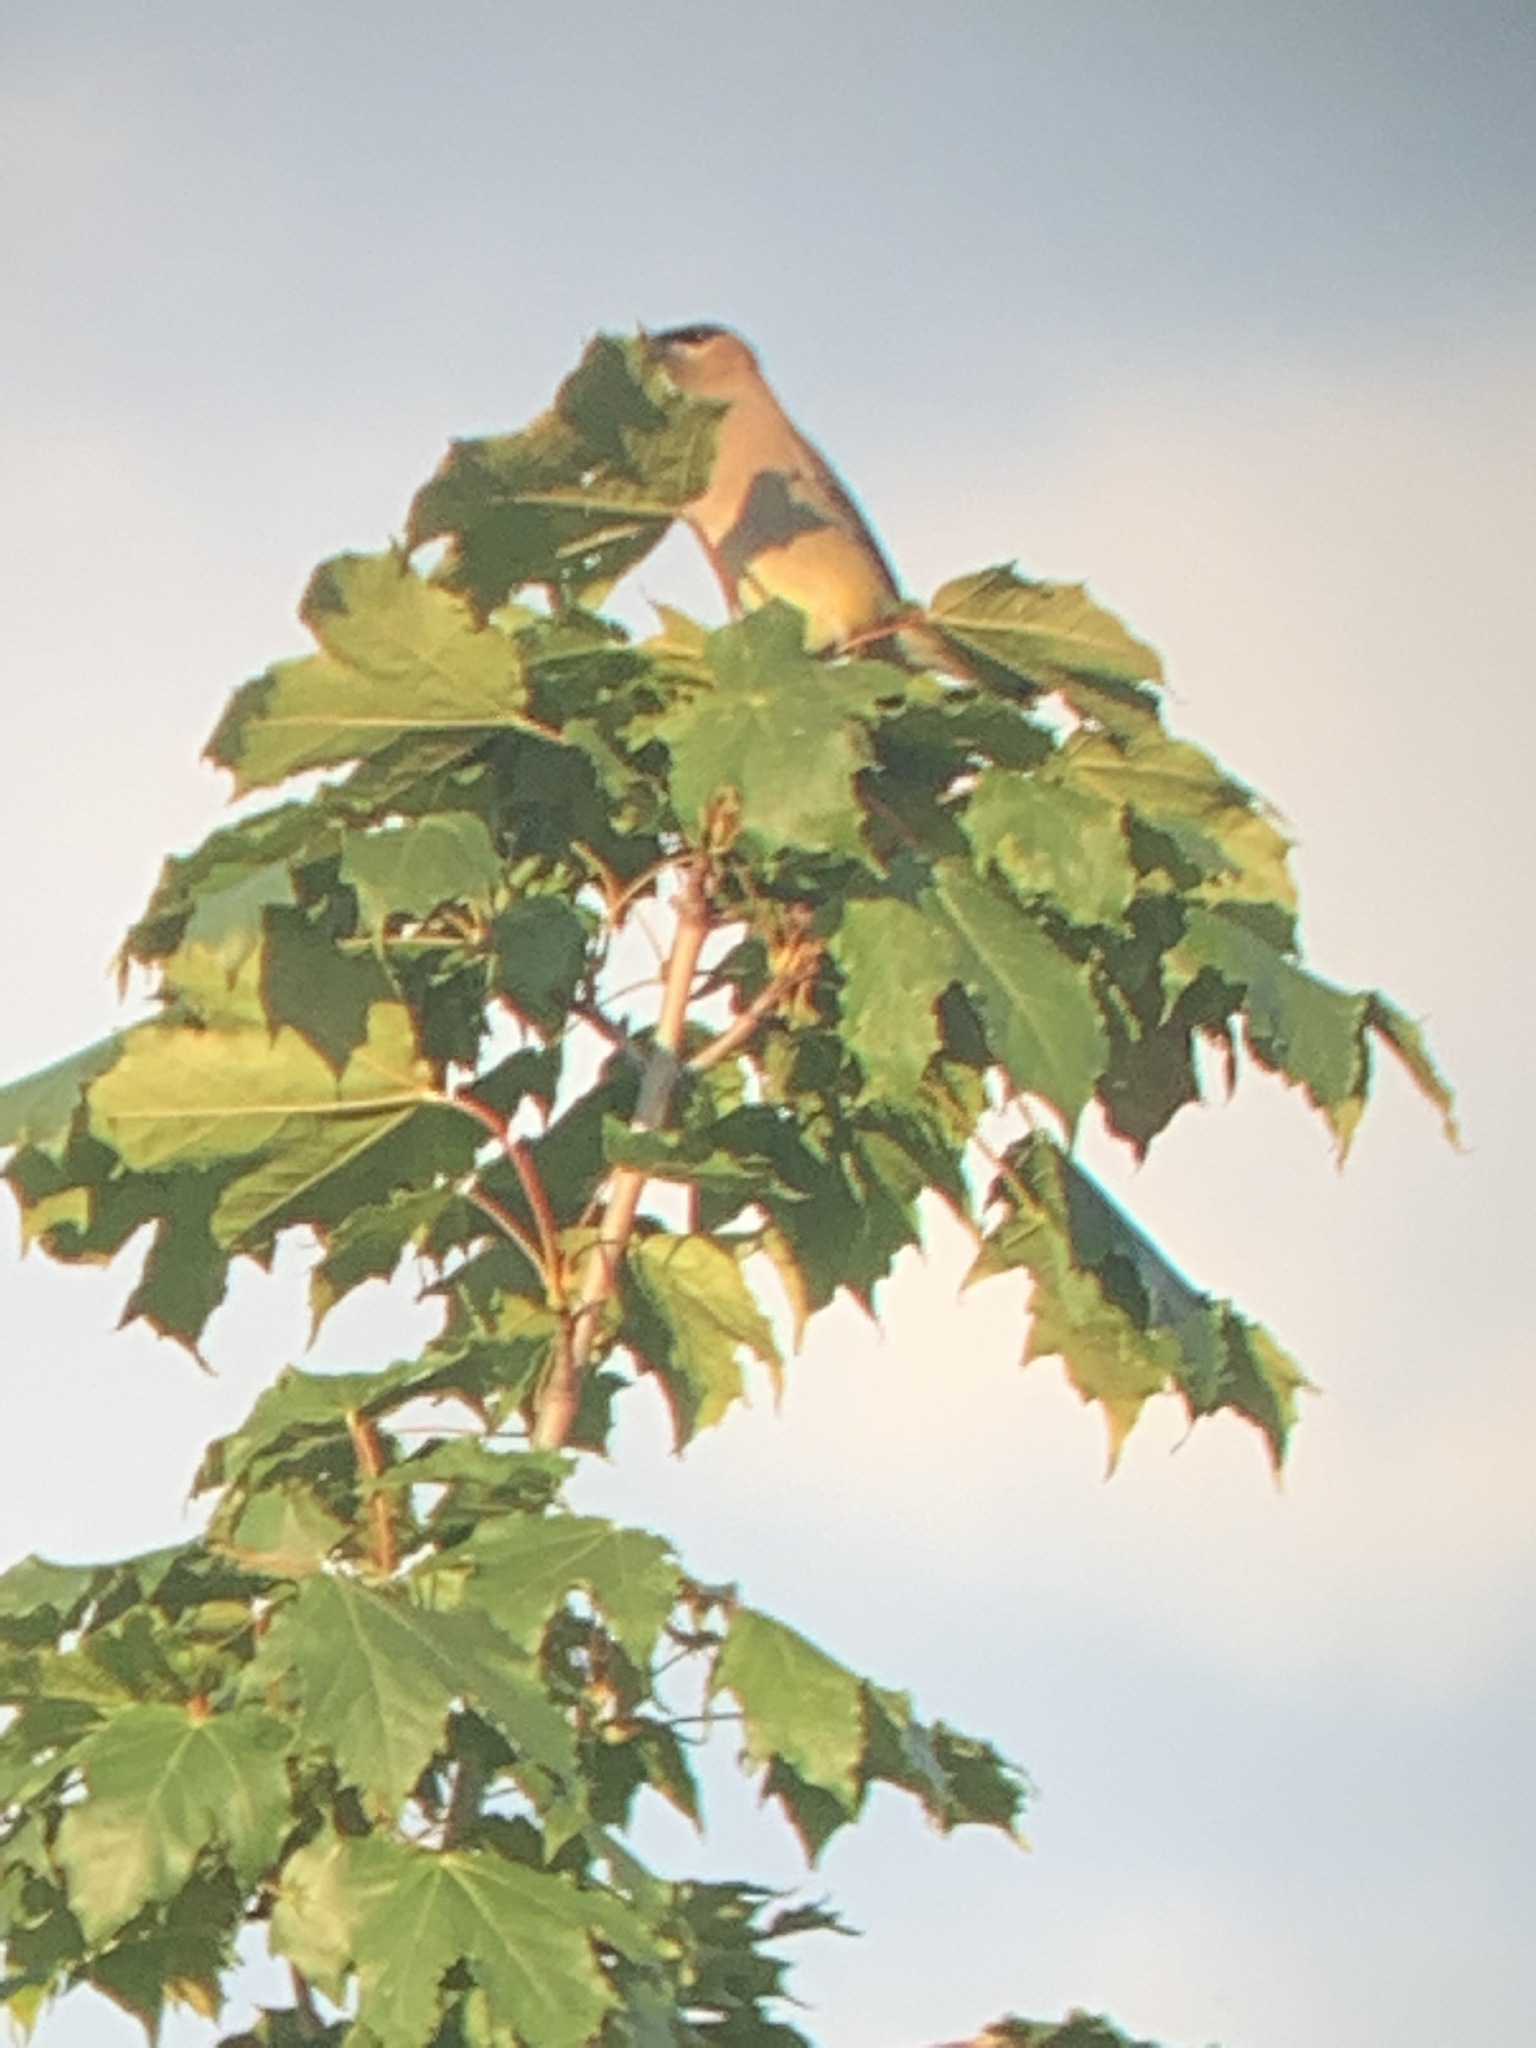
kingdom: Animalia
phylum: Chordata
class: Aves
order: Passeriformes
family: Bombycillidae
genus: Bombycilla
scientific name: Bombycilla cedrorum
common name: Cedar waxwing
